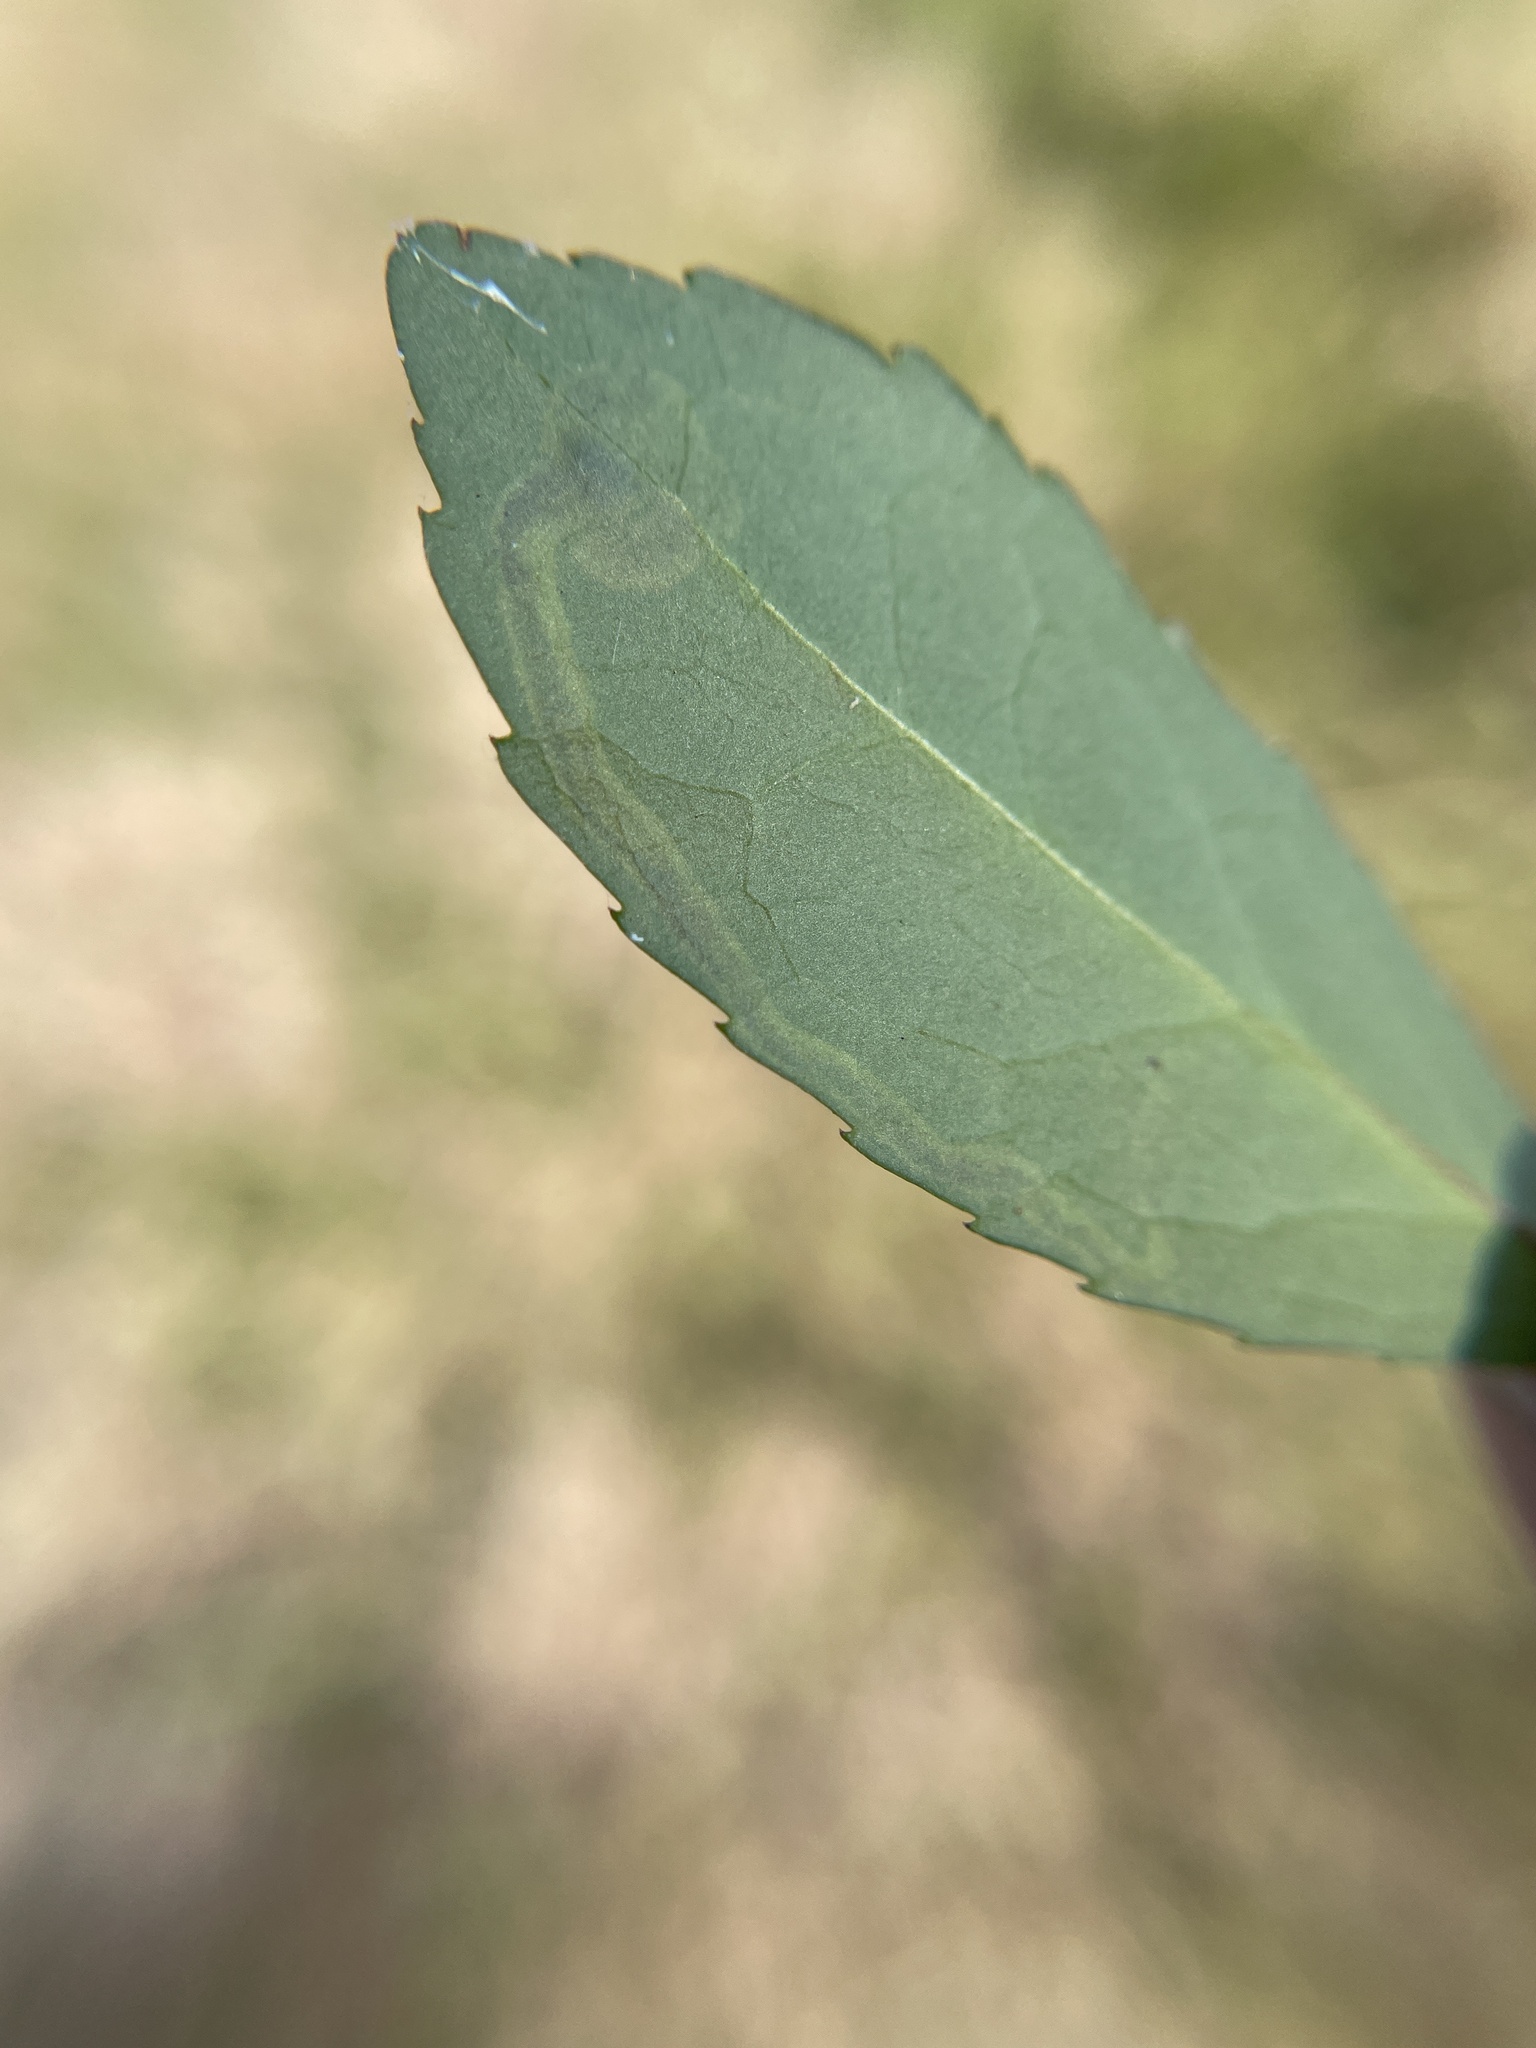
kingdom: Animalia
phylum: Arthropoda
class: Insecta
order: Diptera
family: Agromyzidae
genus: Phytomyza
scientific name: Phytomyza vomitoriae
